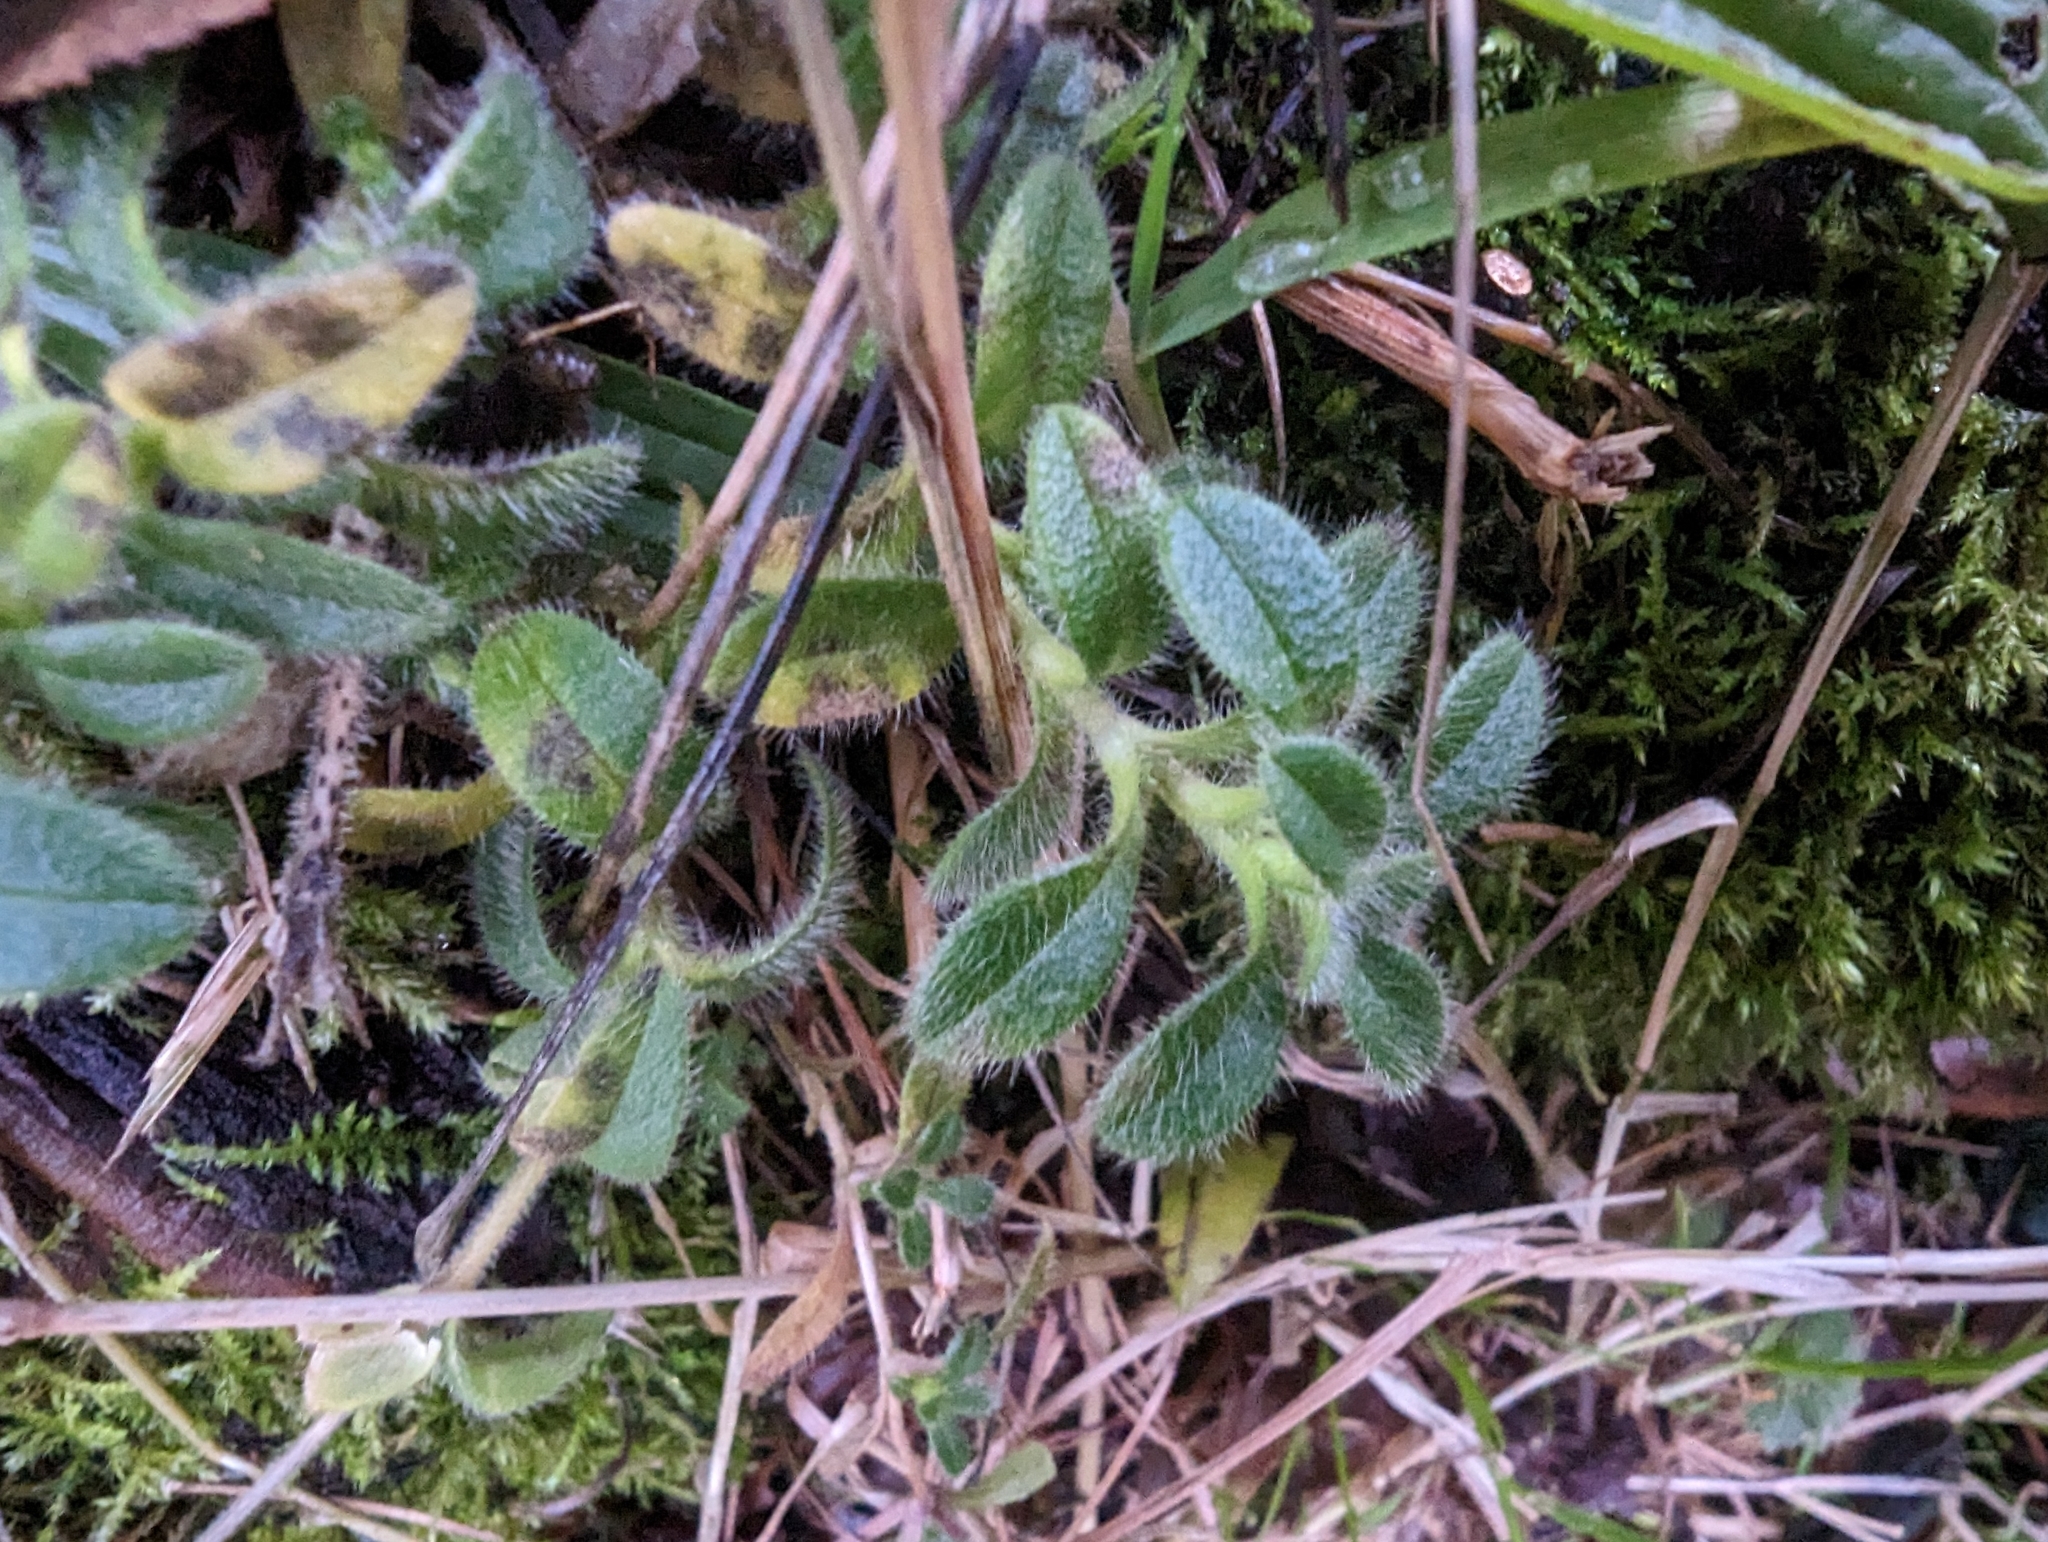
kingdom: Plantae
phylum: Tracheophyta
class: Magnoliopsida
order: Caryophyllales
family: Caryophyllaceae
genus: Cerastium
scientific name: Cerastium fontanum
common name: Common mouse-ear
